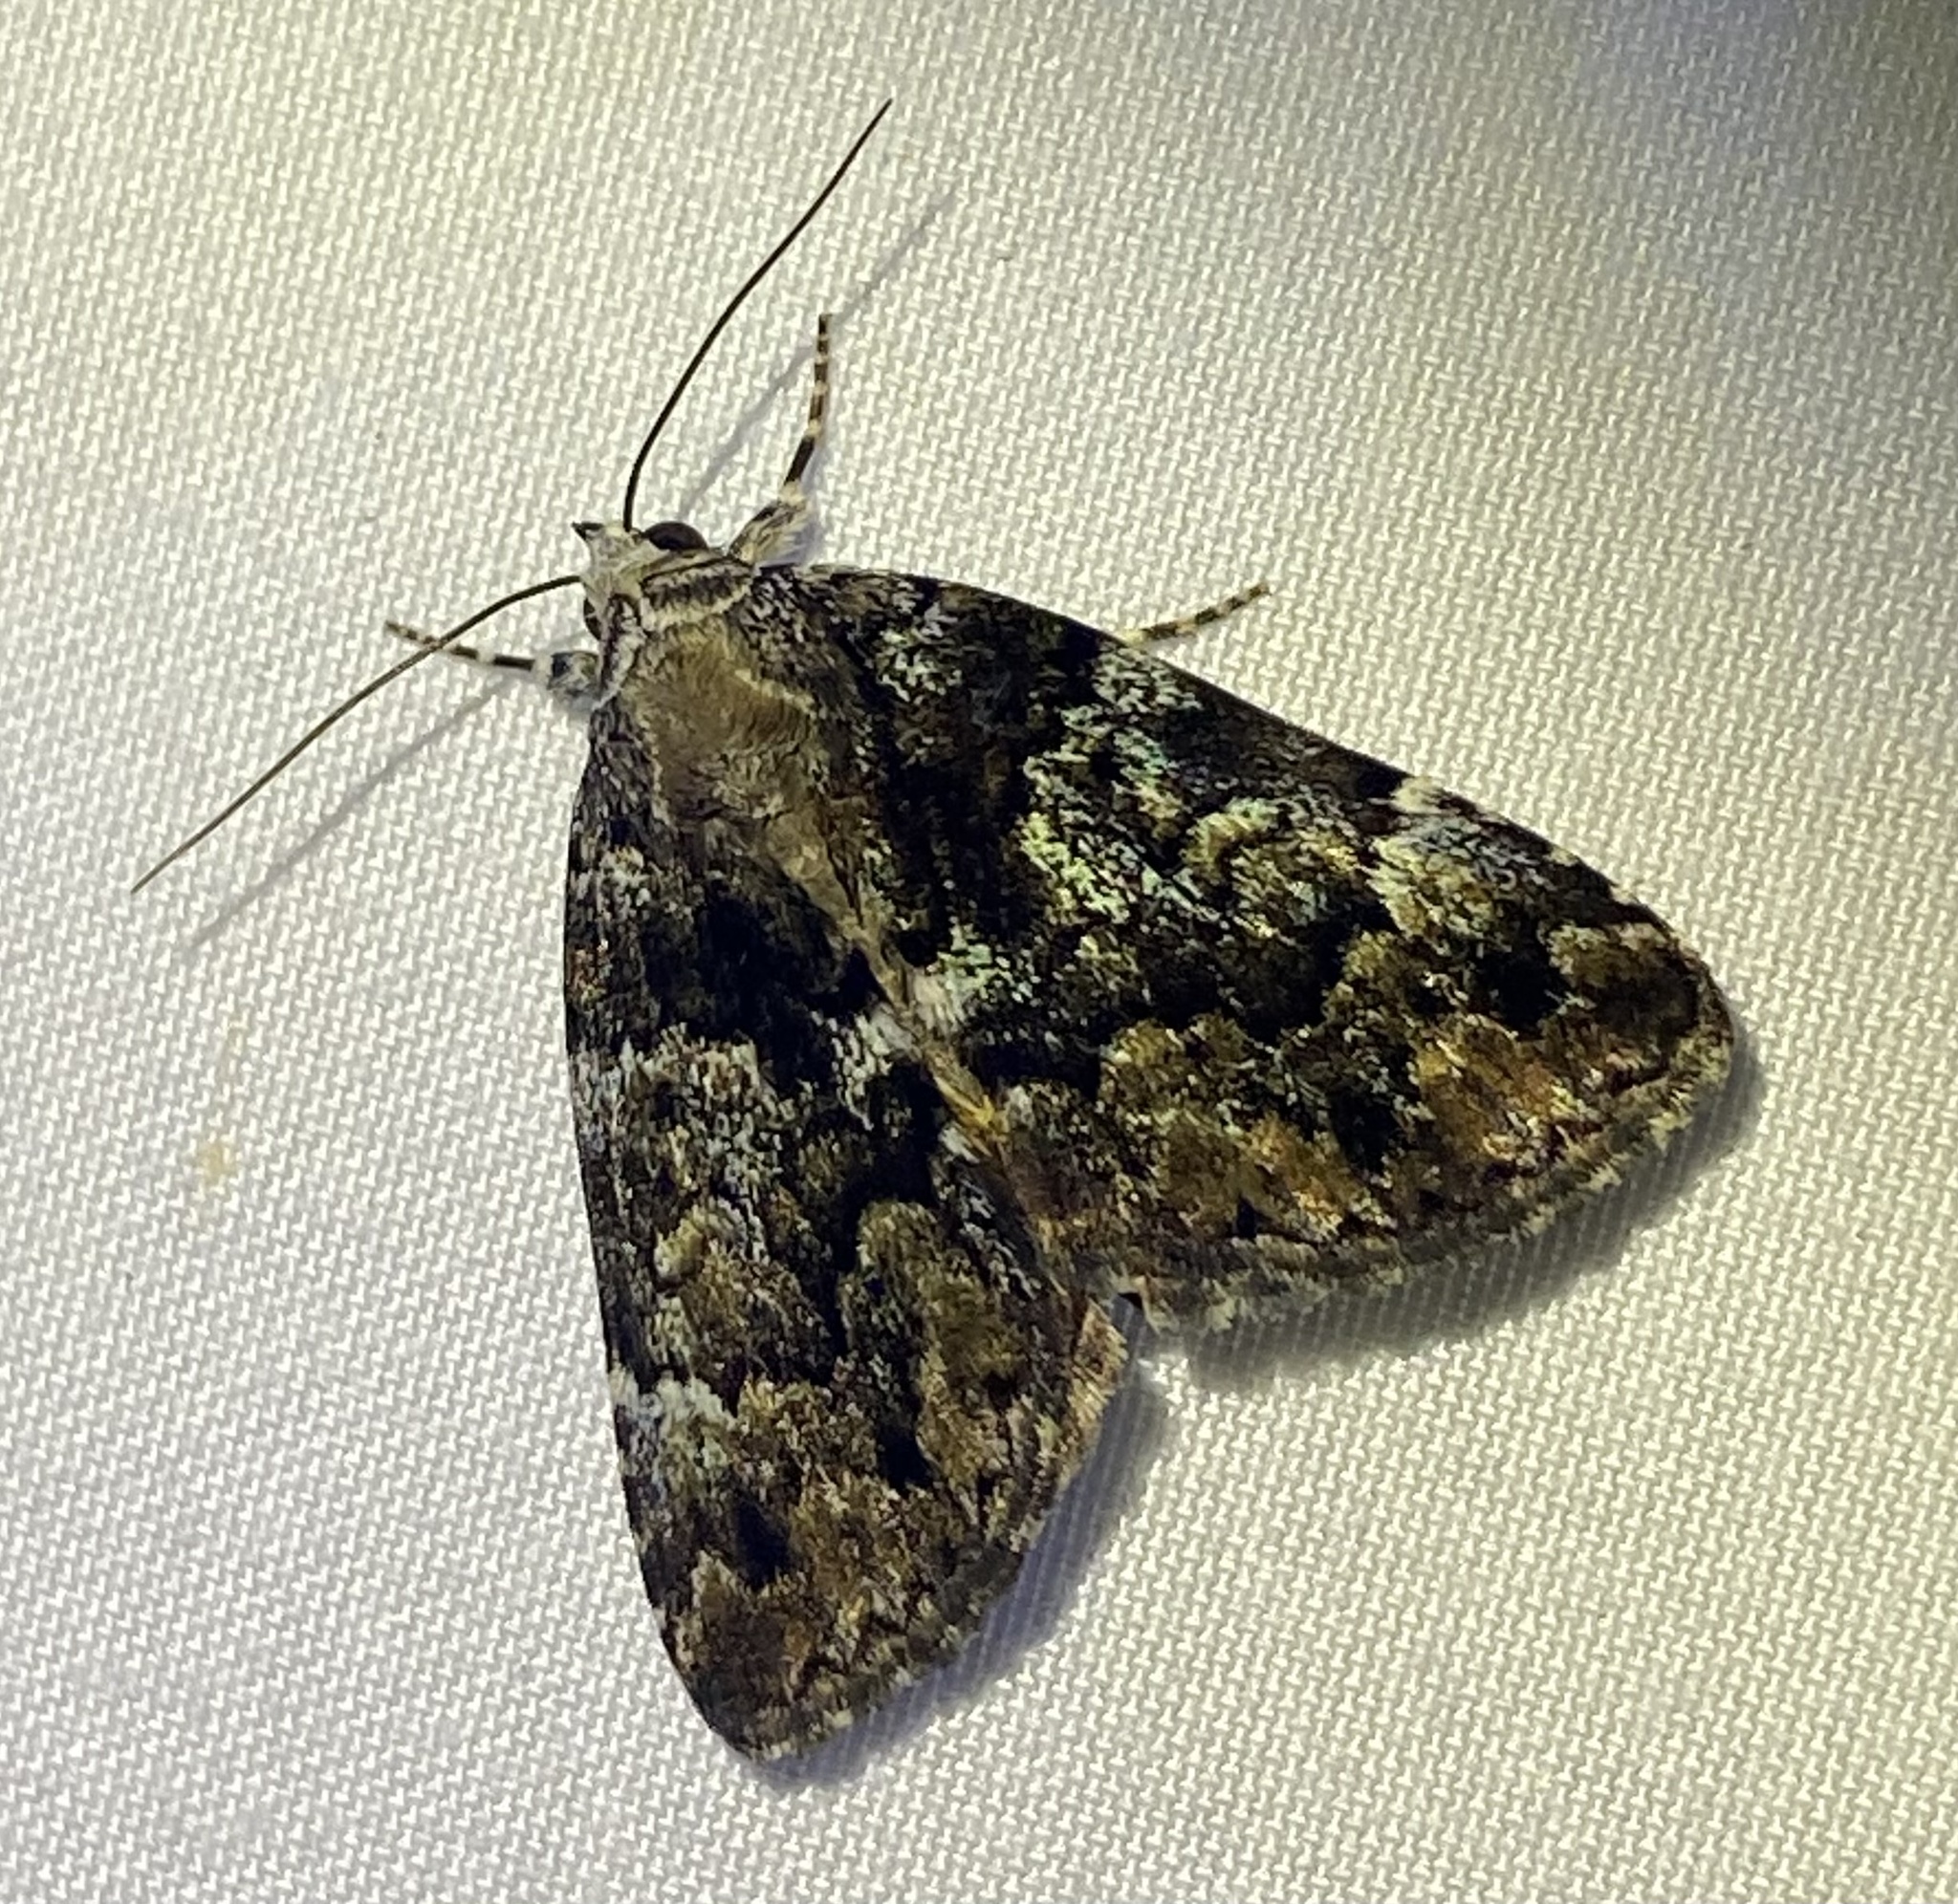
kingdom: Animalia
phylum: Arthropoda
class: Insecta
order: Lepidoptera
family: Erebidae
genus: Allotria
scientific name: Allotria elonympha
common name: False underwing
